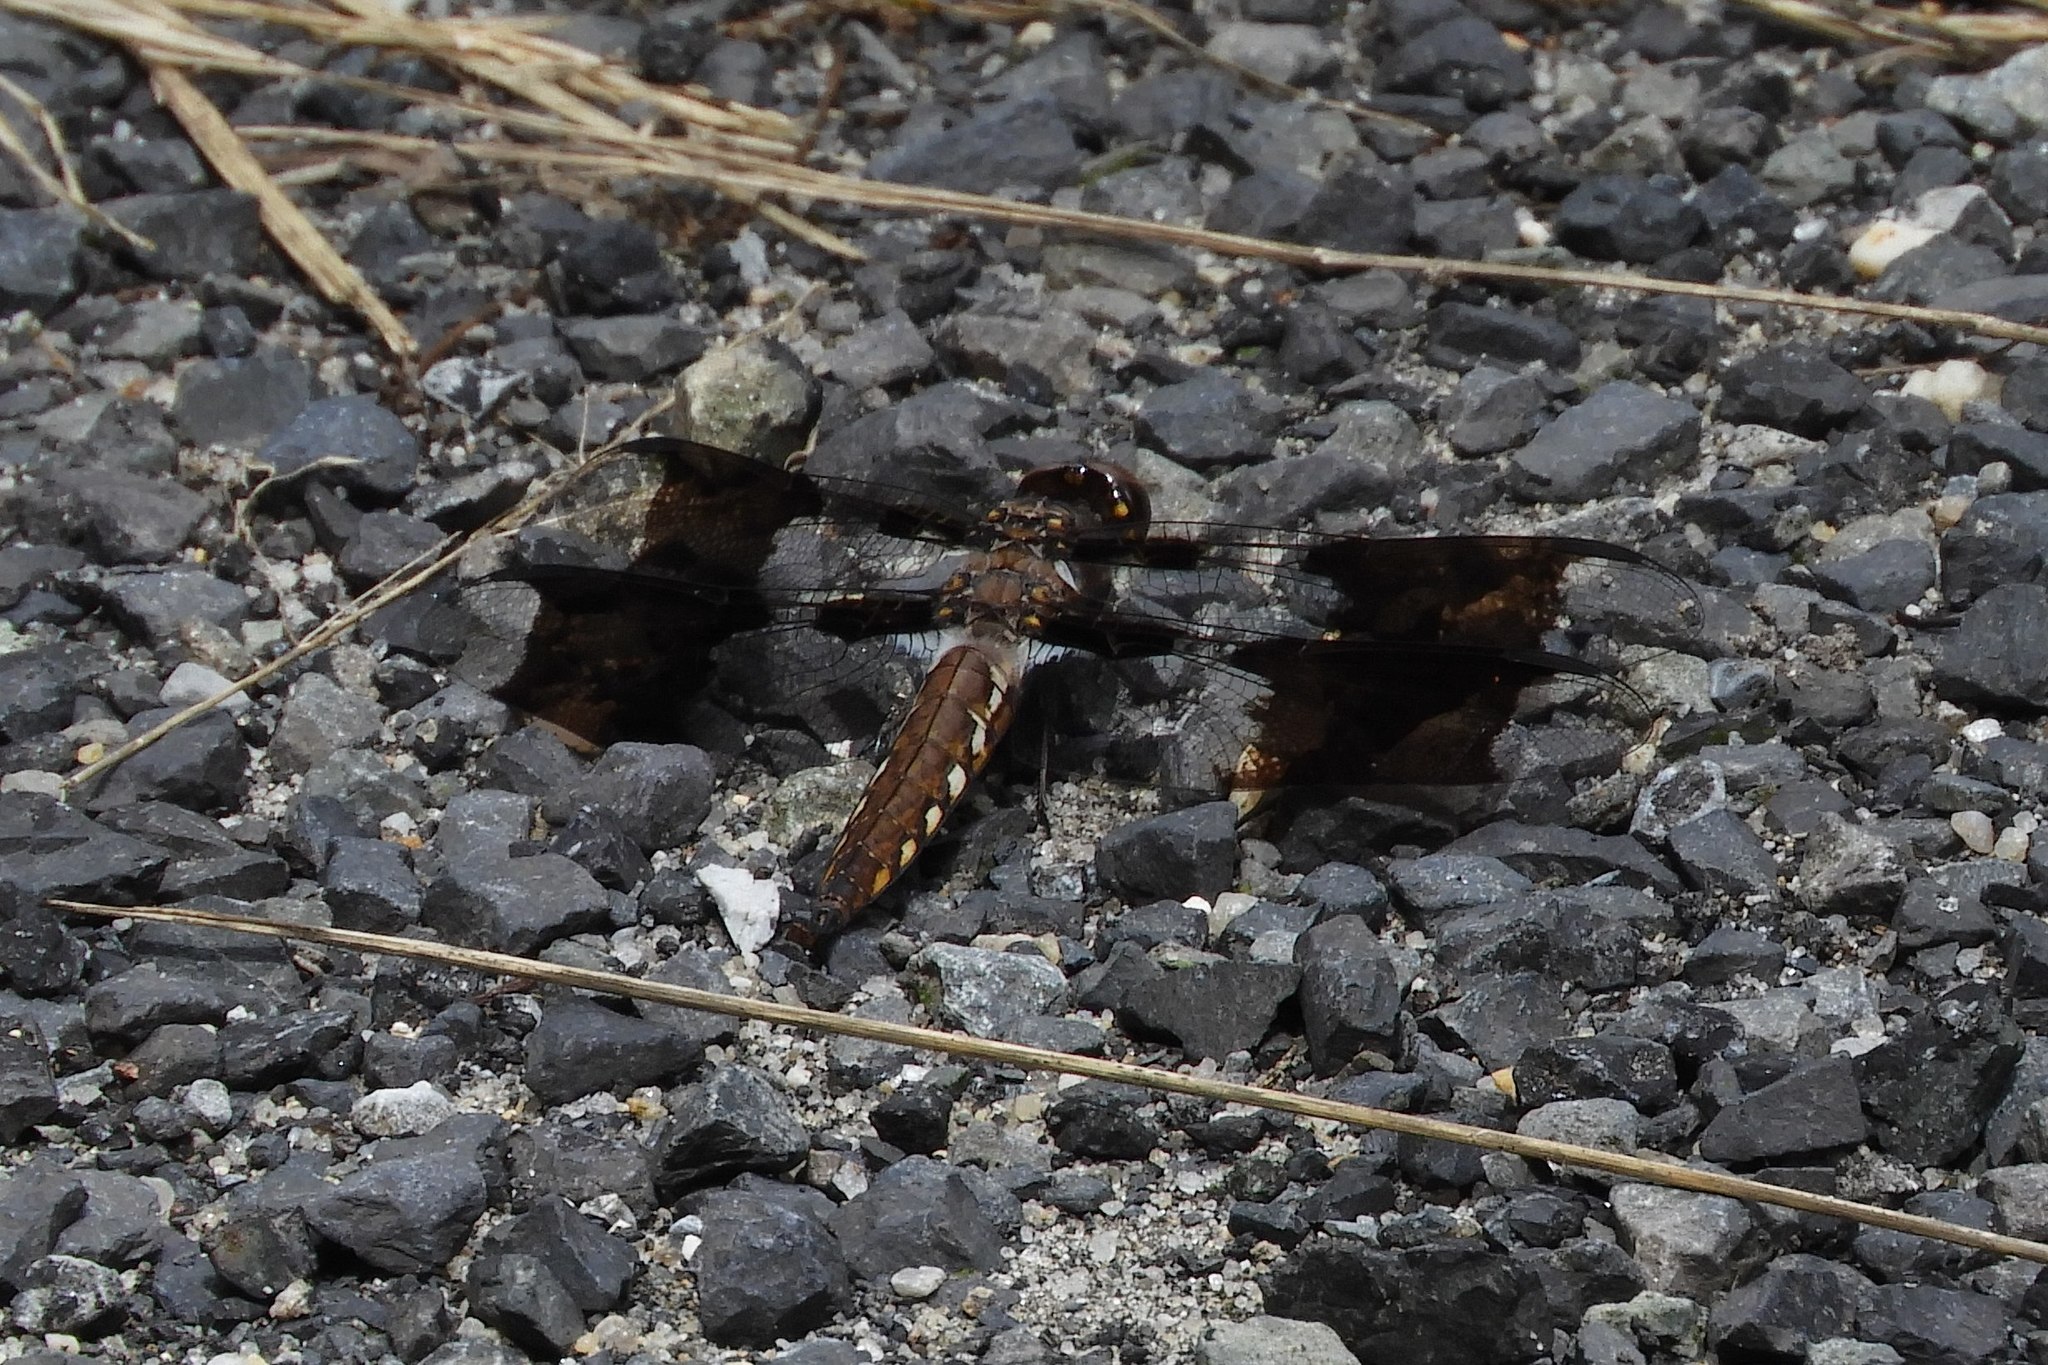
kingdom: Animalia
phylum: Arthropoda
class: Insecta
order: Odonata
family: Libellulidae
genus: Plathemis
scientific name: Plathemis lydia
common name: Common whitetail
